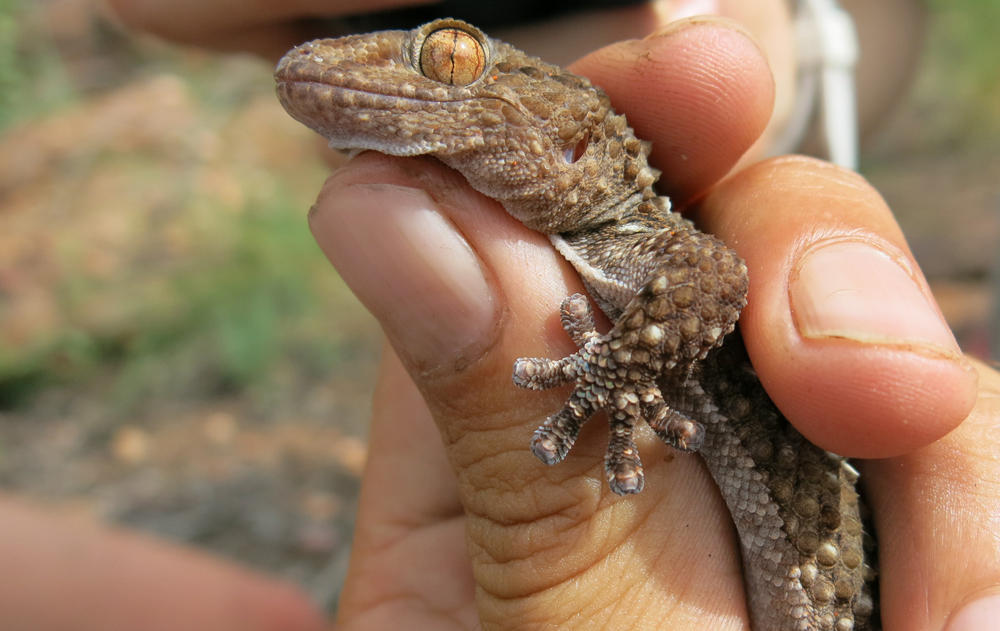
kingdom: Animalia
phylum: Chordata
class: Squamata
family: Gekkonidae
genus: Chondrodactylus
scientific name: Chondrodactylus turneri
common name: Turner’s gecko
